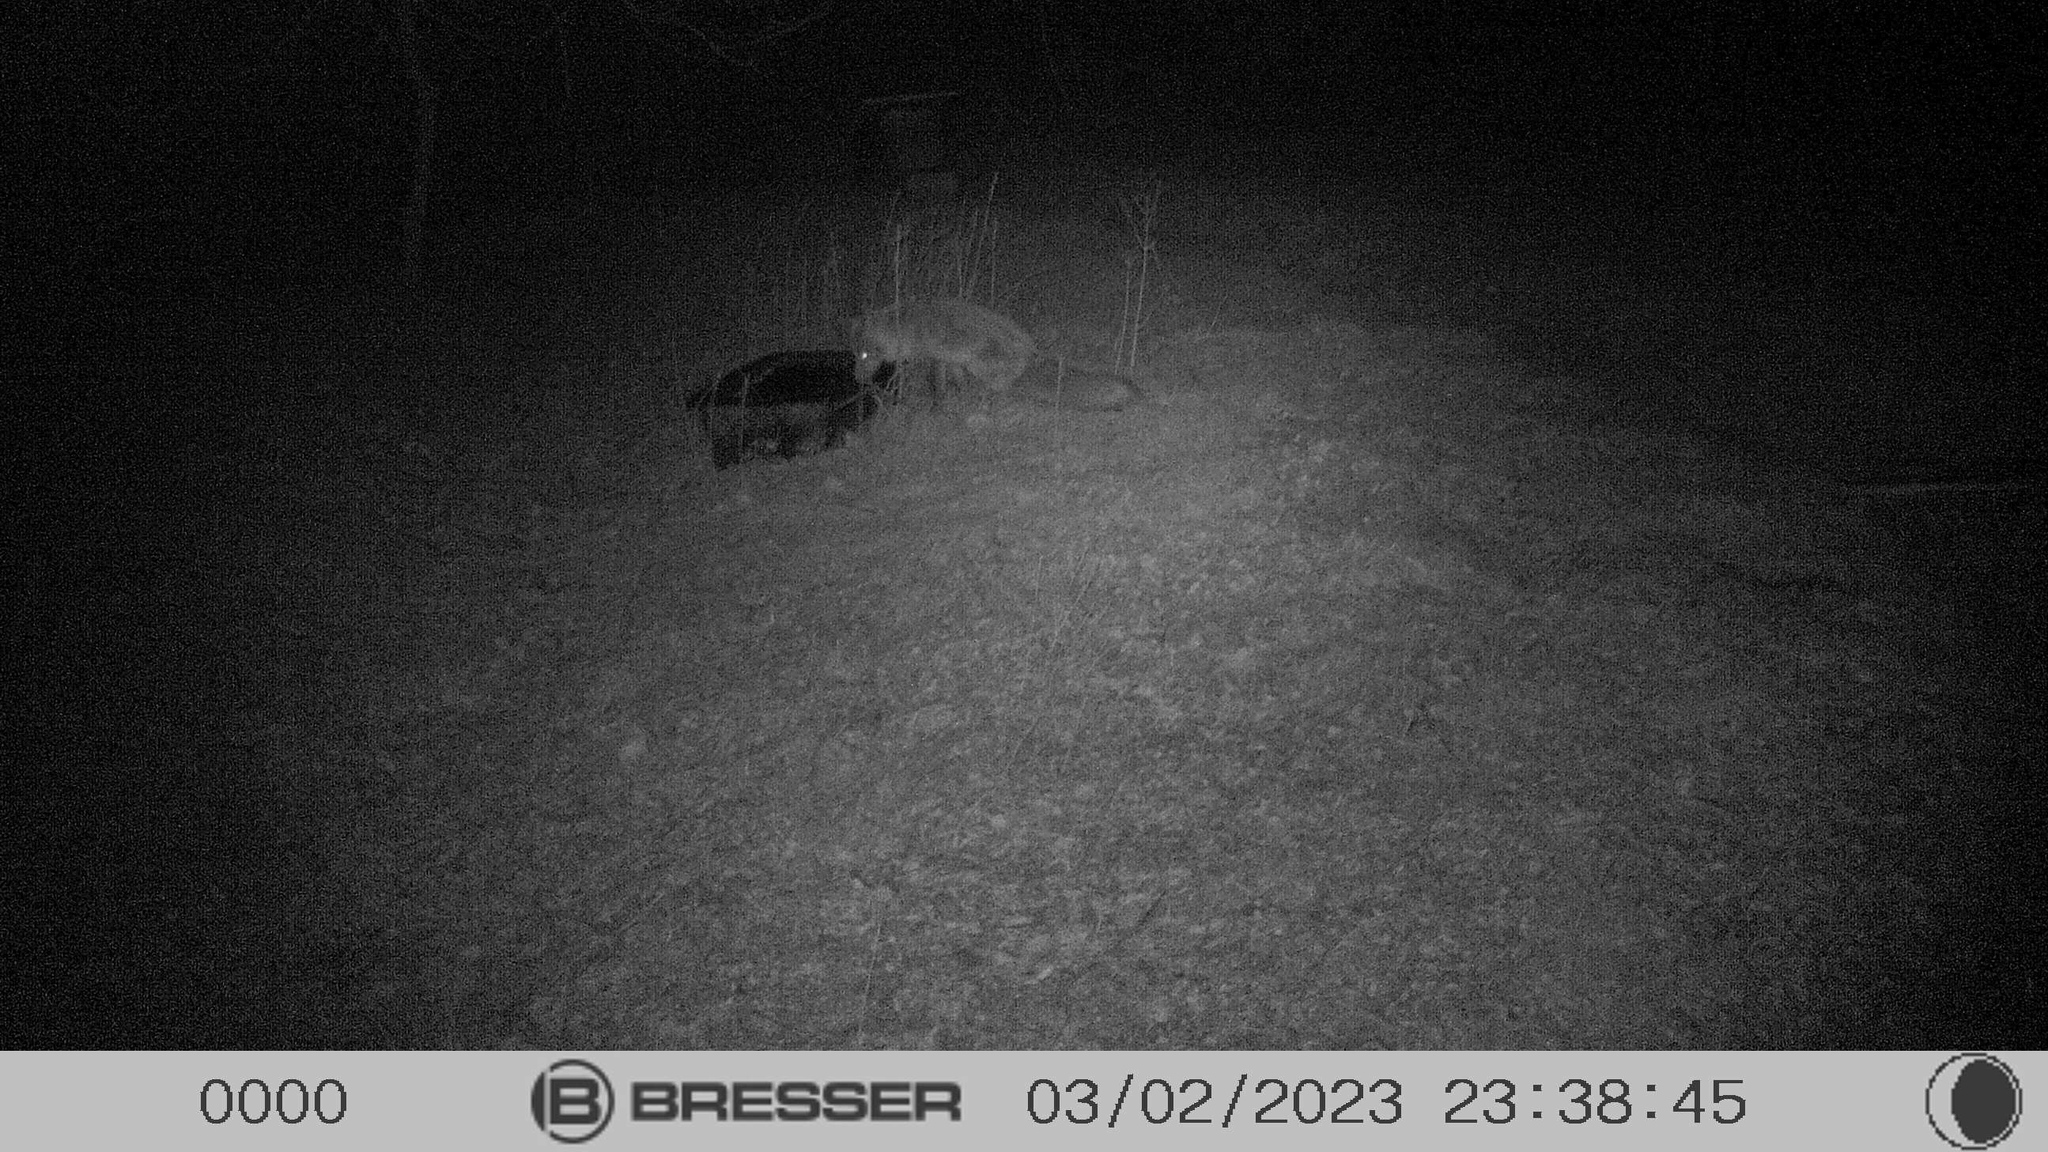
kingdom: Animalia
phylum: Chordata
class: Mammalia
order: Carnivora
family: Canidae
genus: Vulpes
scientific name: Vulpes vulpes
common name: Red fox
